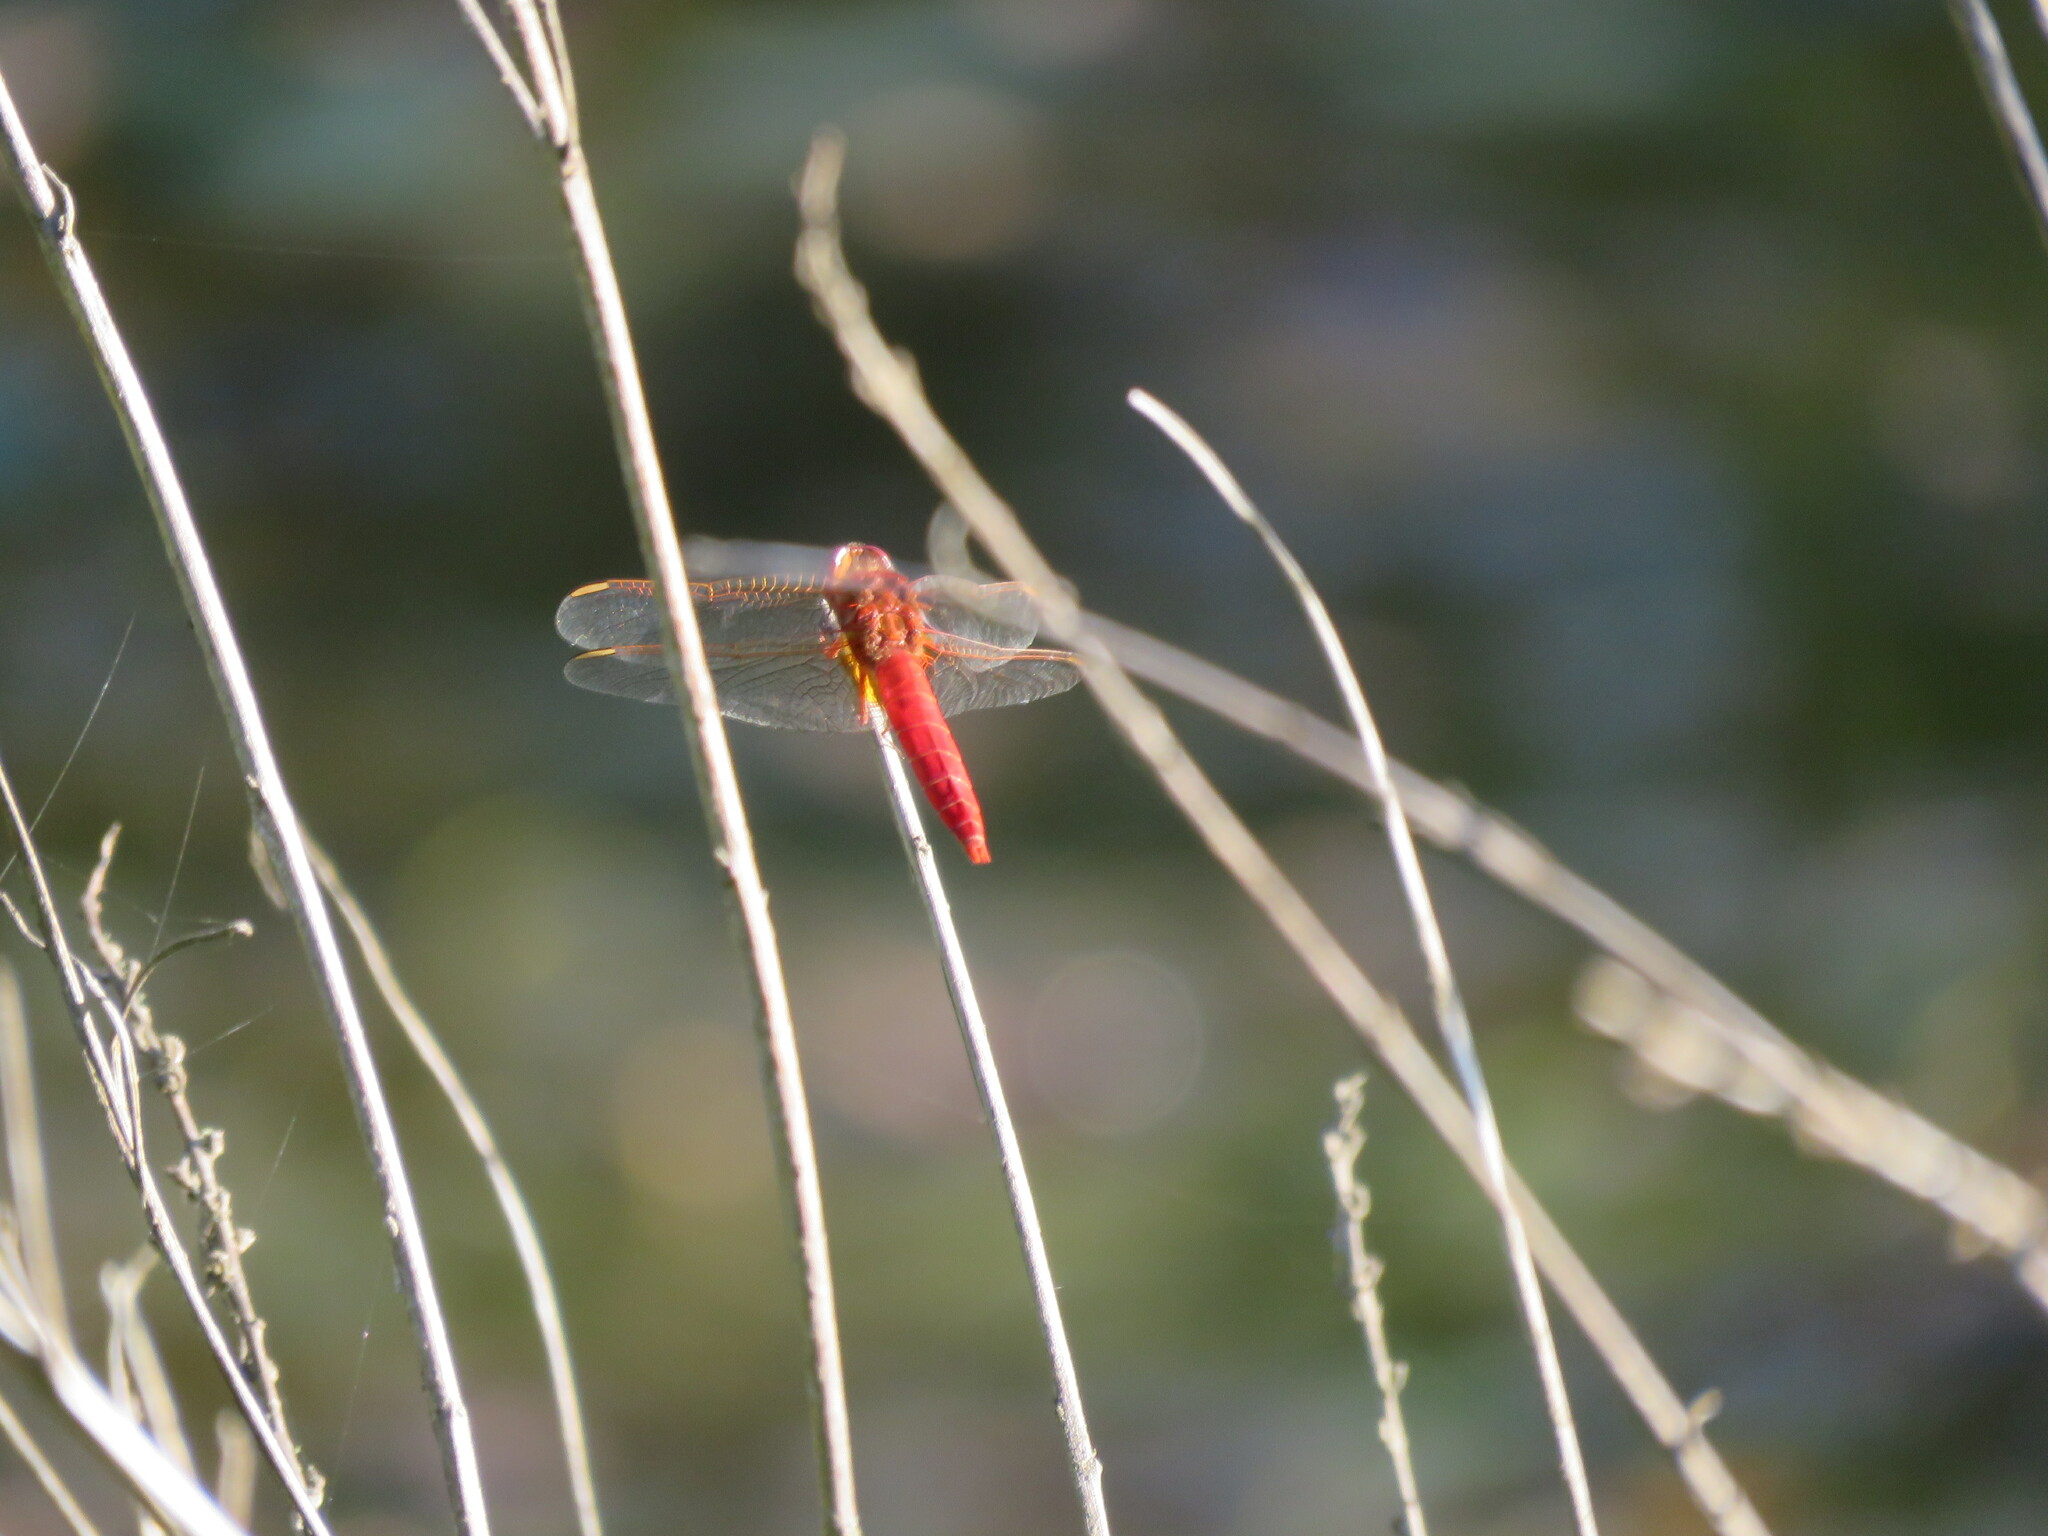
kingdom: Animalia
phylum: Arthropoda
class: Insecta
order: Odonata
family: Libellulidae
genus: Crocothemis
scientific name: Crocothemis erythraea
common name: Scarlet dragonfly
